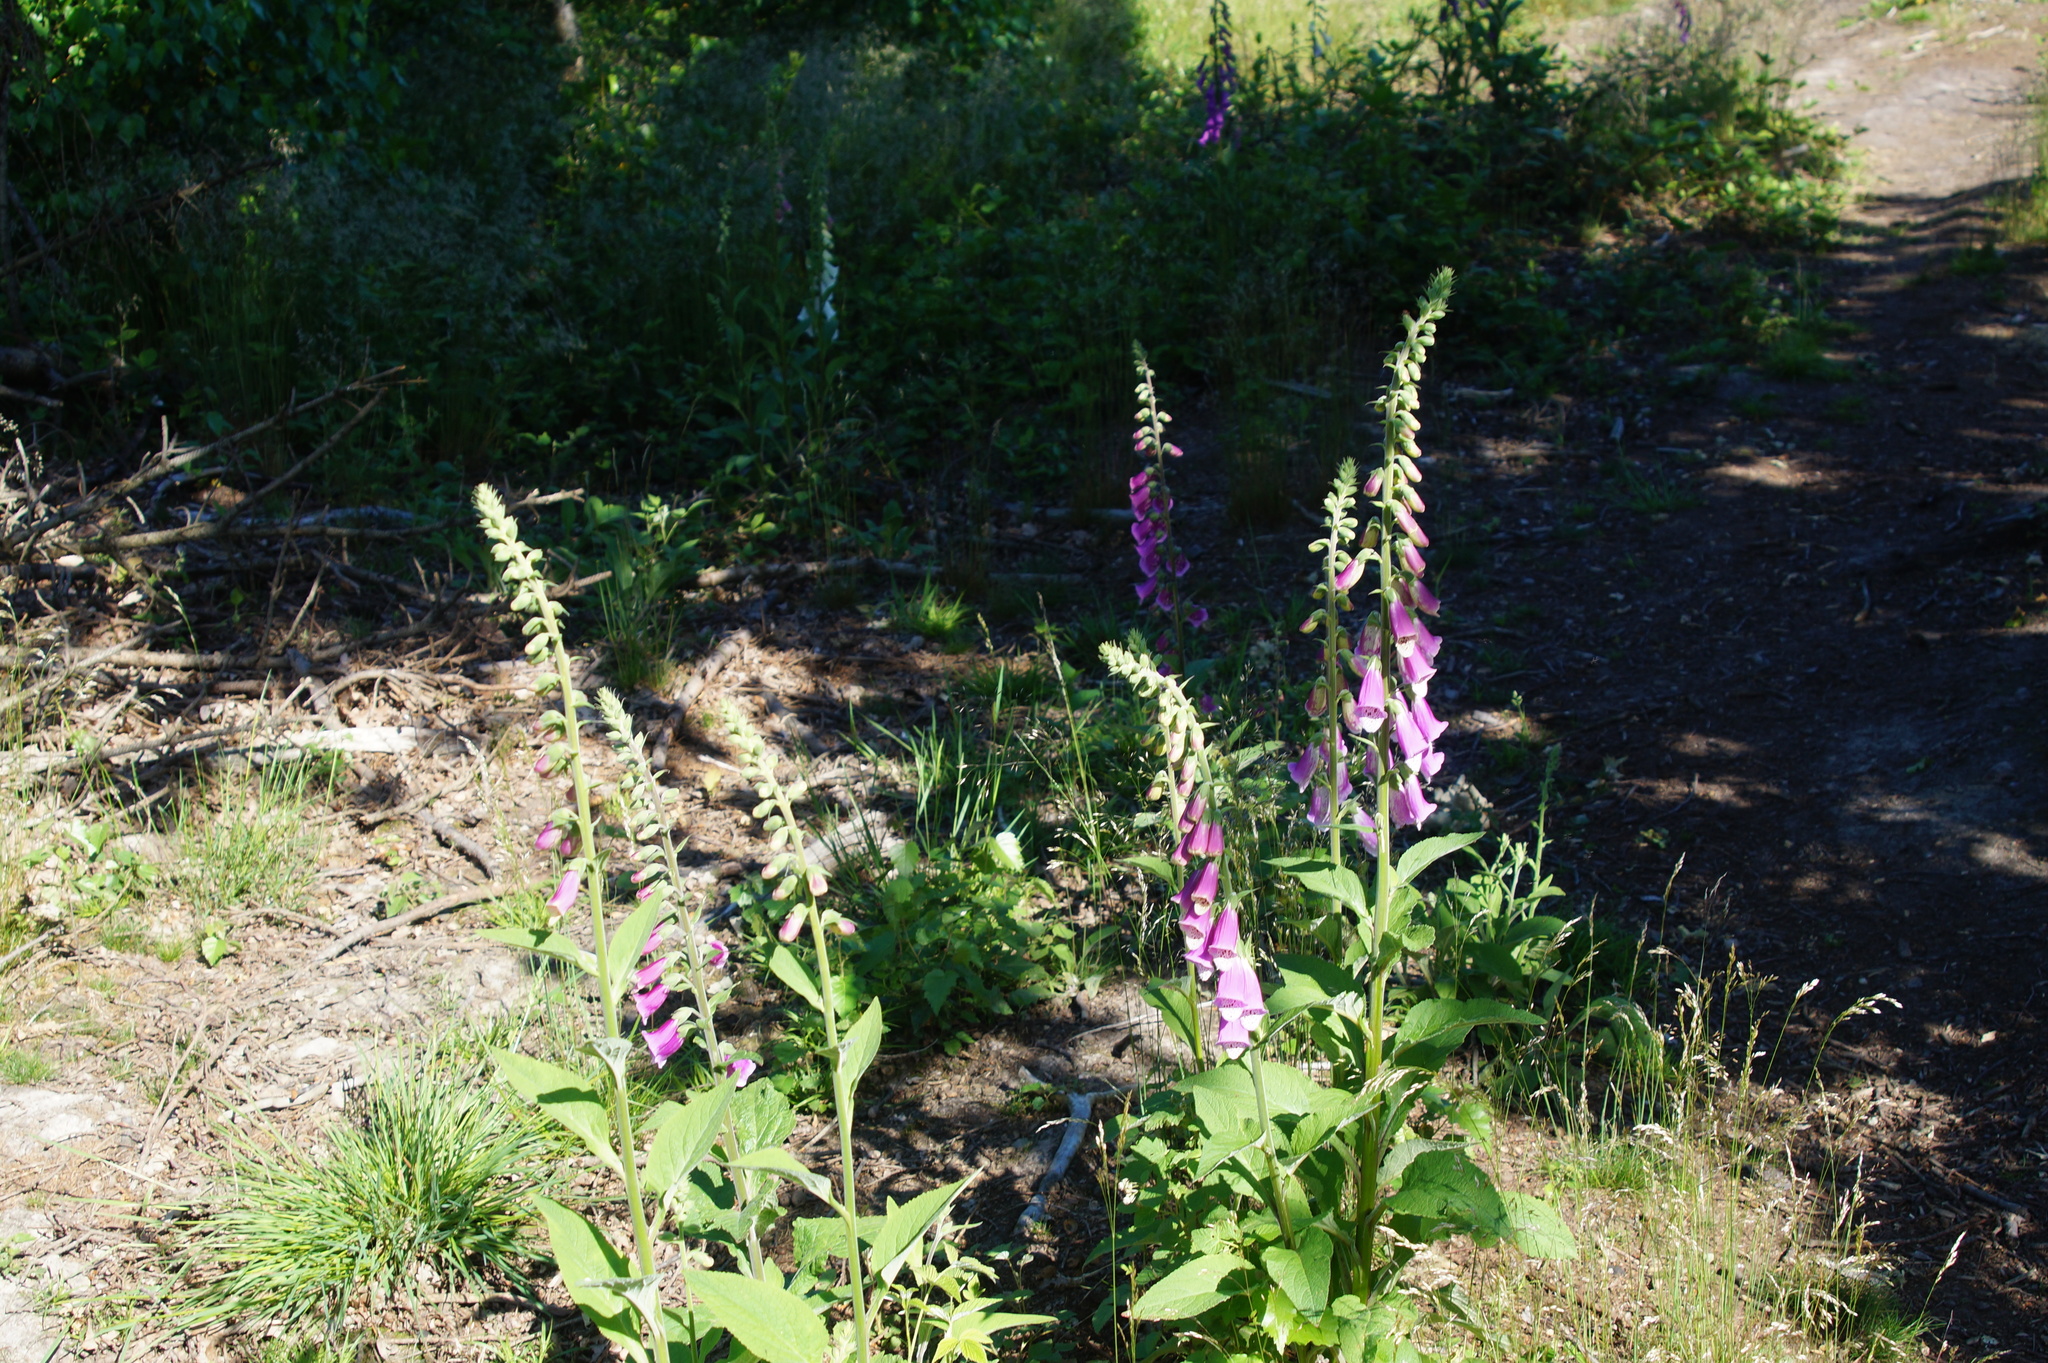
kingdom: Plantae
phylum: Tracheophyta
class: Magnoliopsida
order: Lamiales
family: Plantaginaceae
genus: Digitalis
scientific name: Digitalis purpurea
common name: Foxglove
